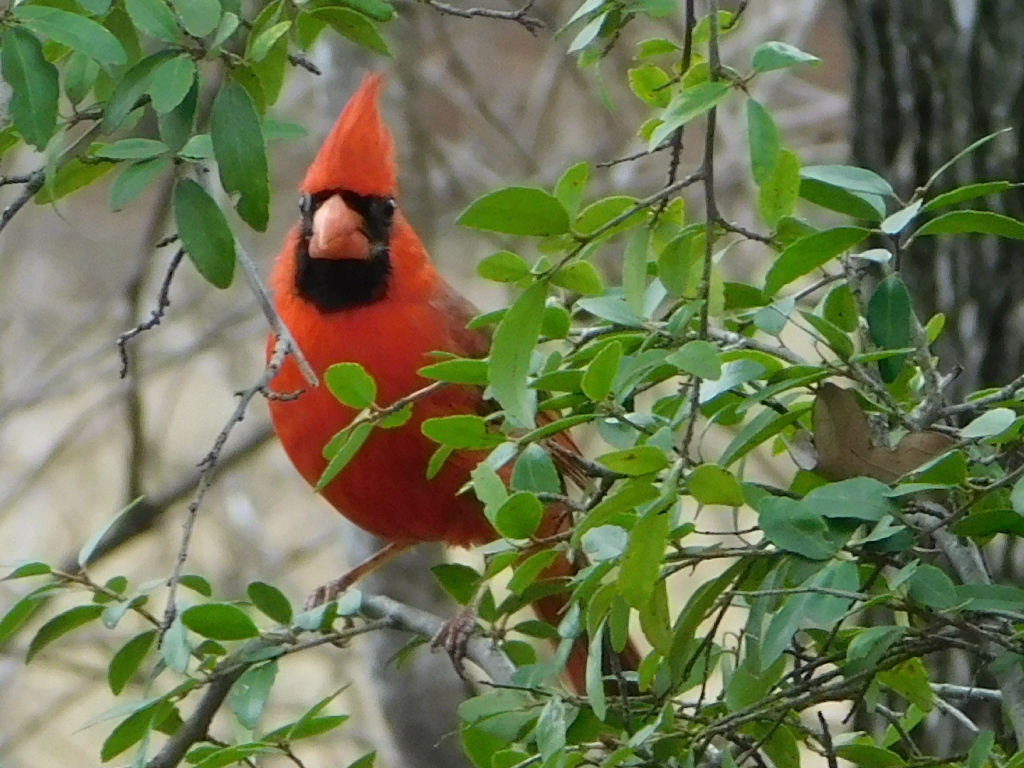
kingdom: Animalia
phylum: Chordata
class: Aves
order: Passeriformes
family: Cardinalidae
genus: Cardinalis
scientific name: Cardinalis cardinalis
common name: Northern cardinal
